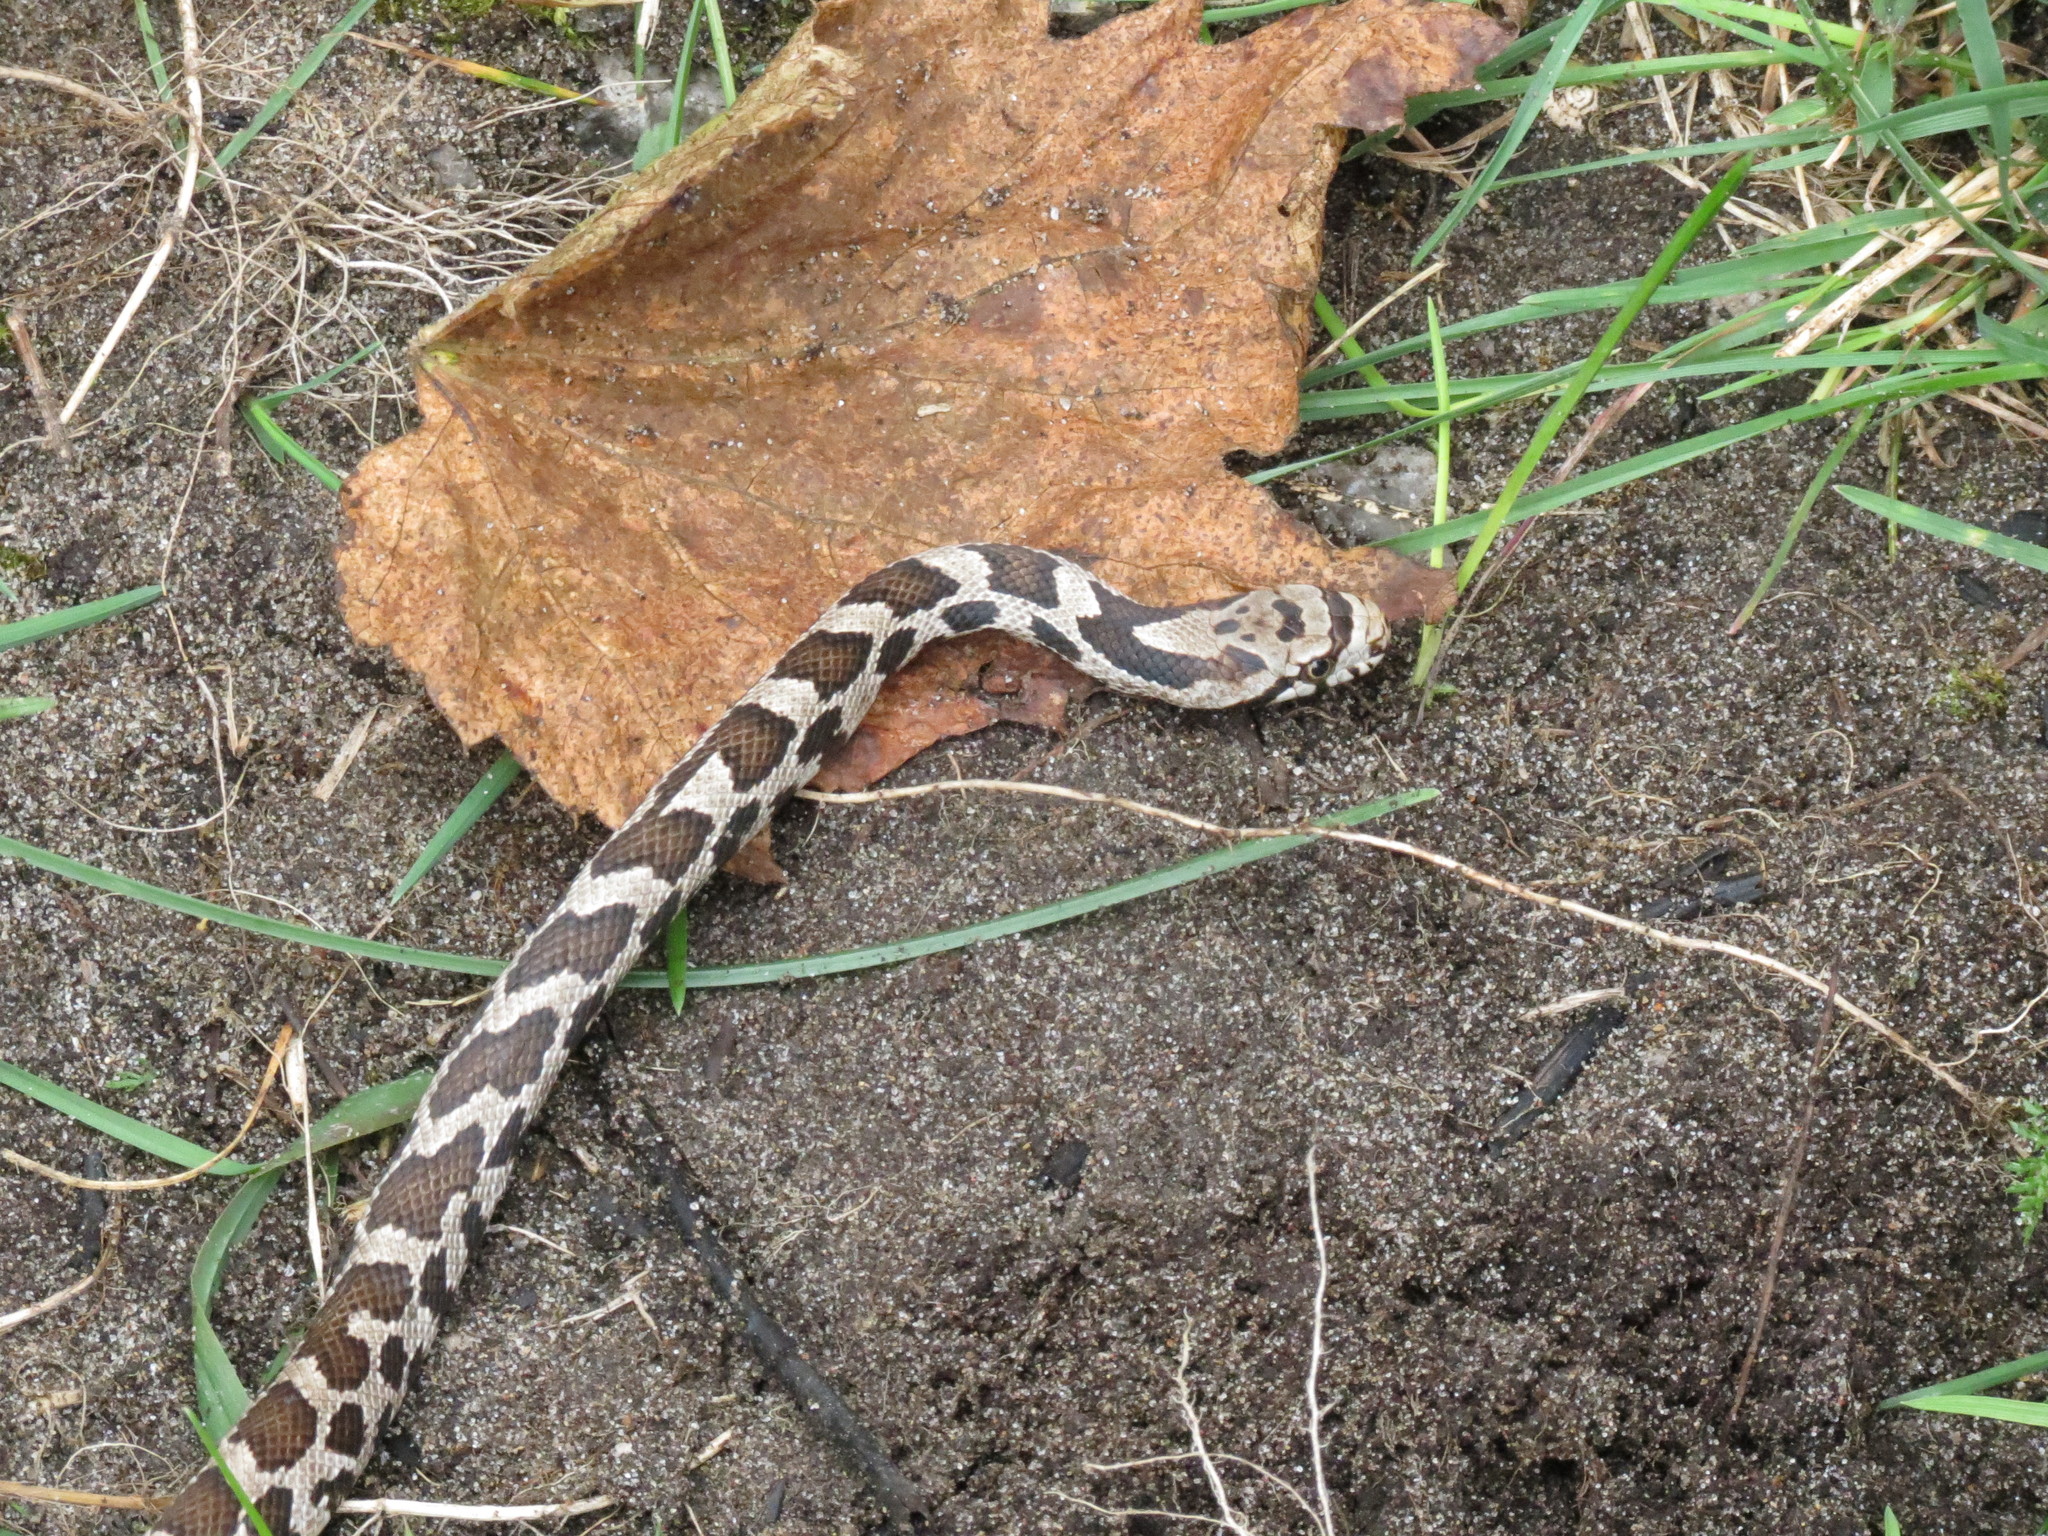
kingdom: Animalia
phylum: Chordata
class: Squamata
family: Colubridae
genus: Pantherophis
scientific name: Pantherophis vulpinus
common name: Eastern fox snake
